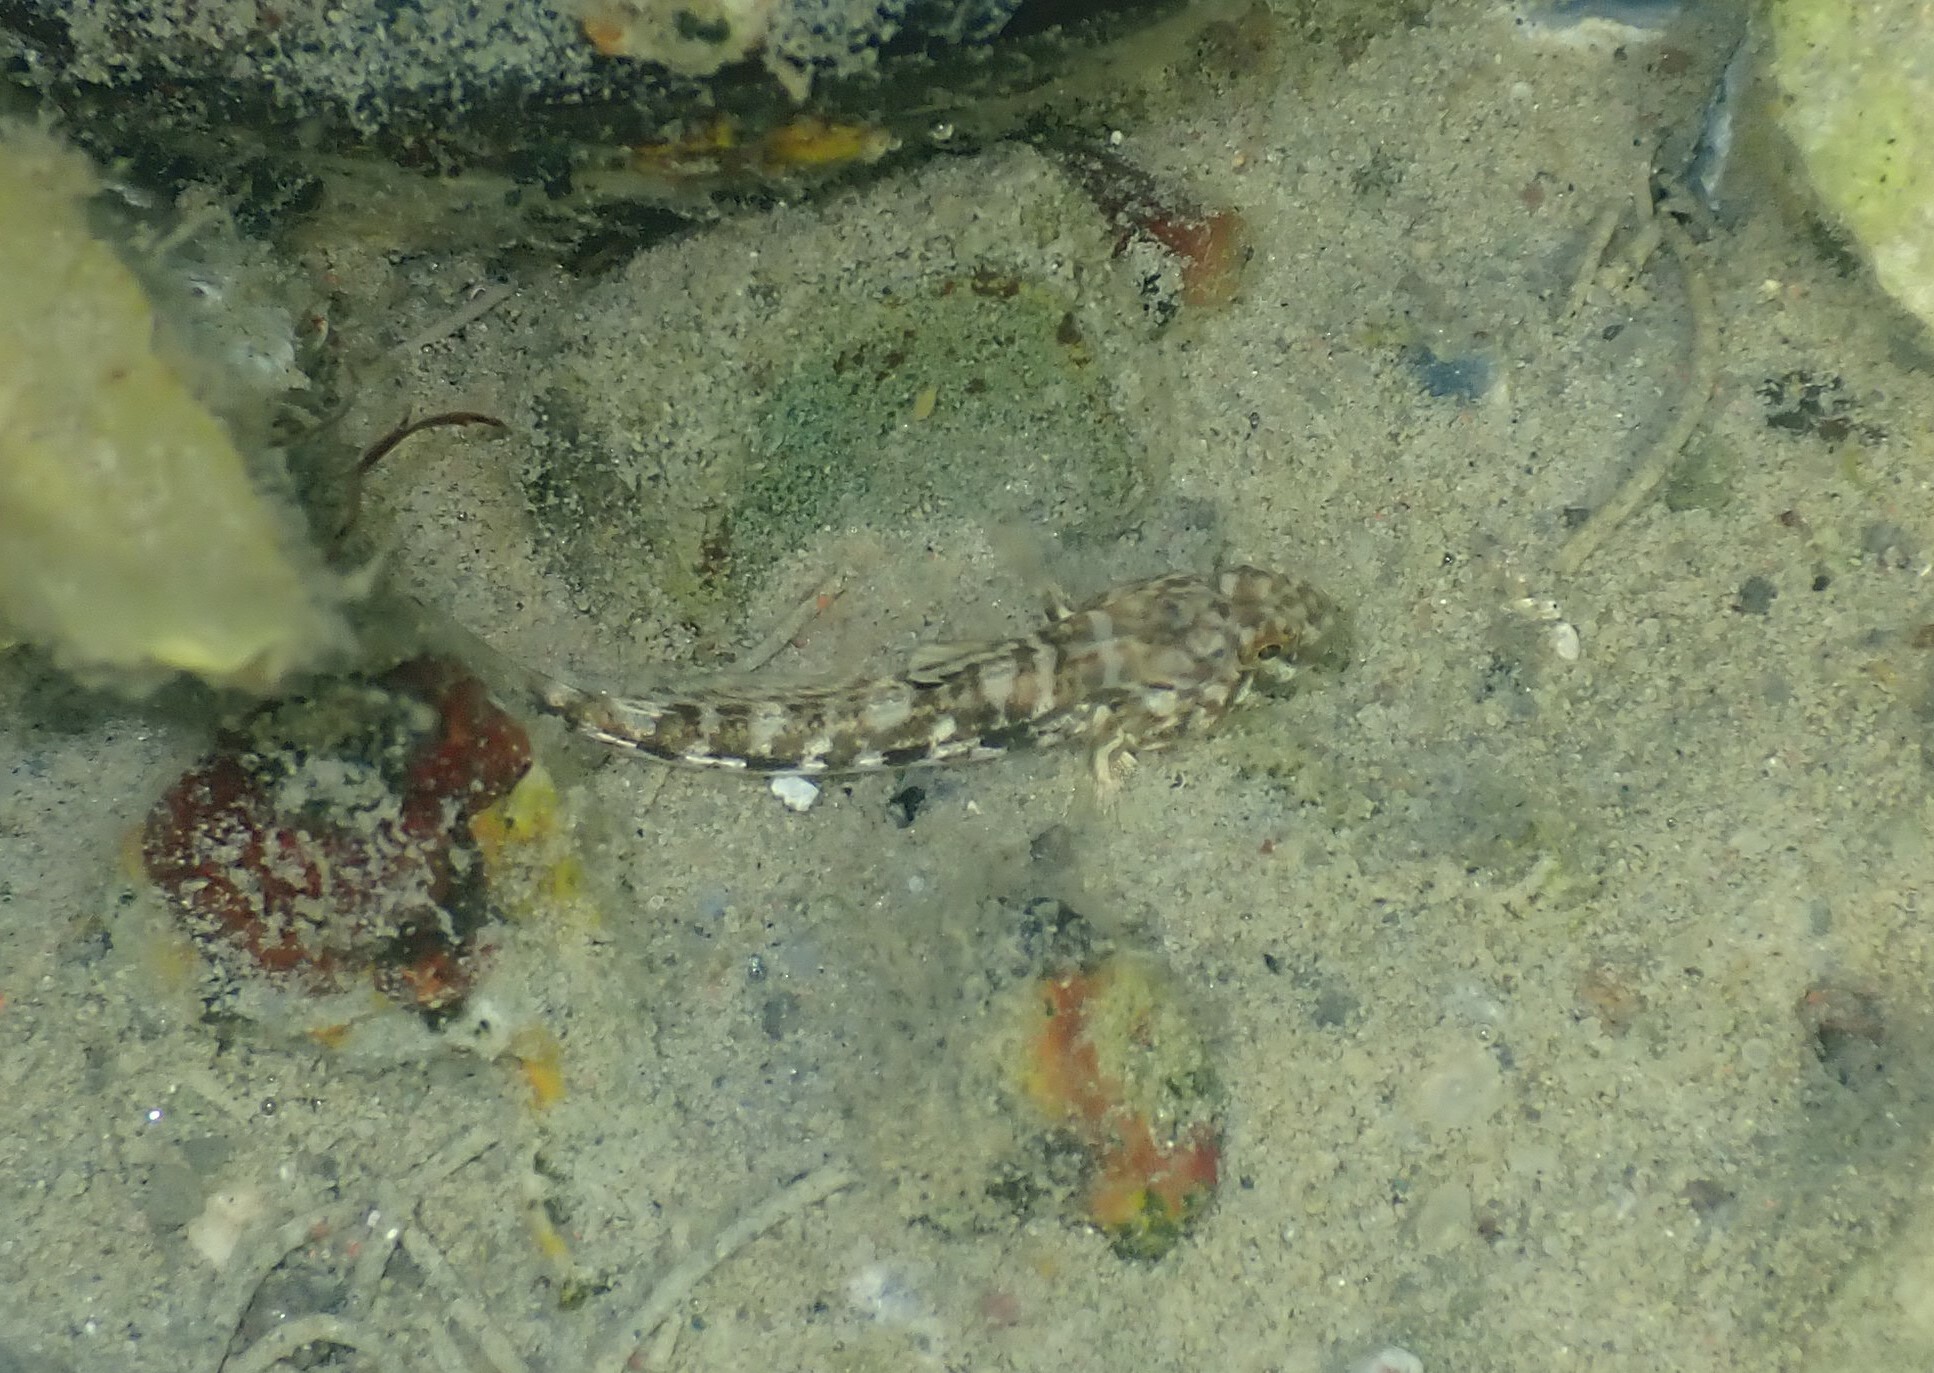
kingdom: Animalia
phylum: Chordata
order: Perciformes
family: Gobiidae
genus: Gobius
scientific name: Gobius niger
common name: Black goby
